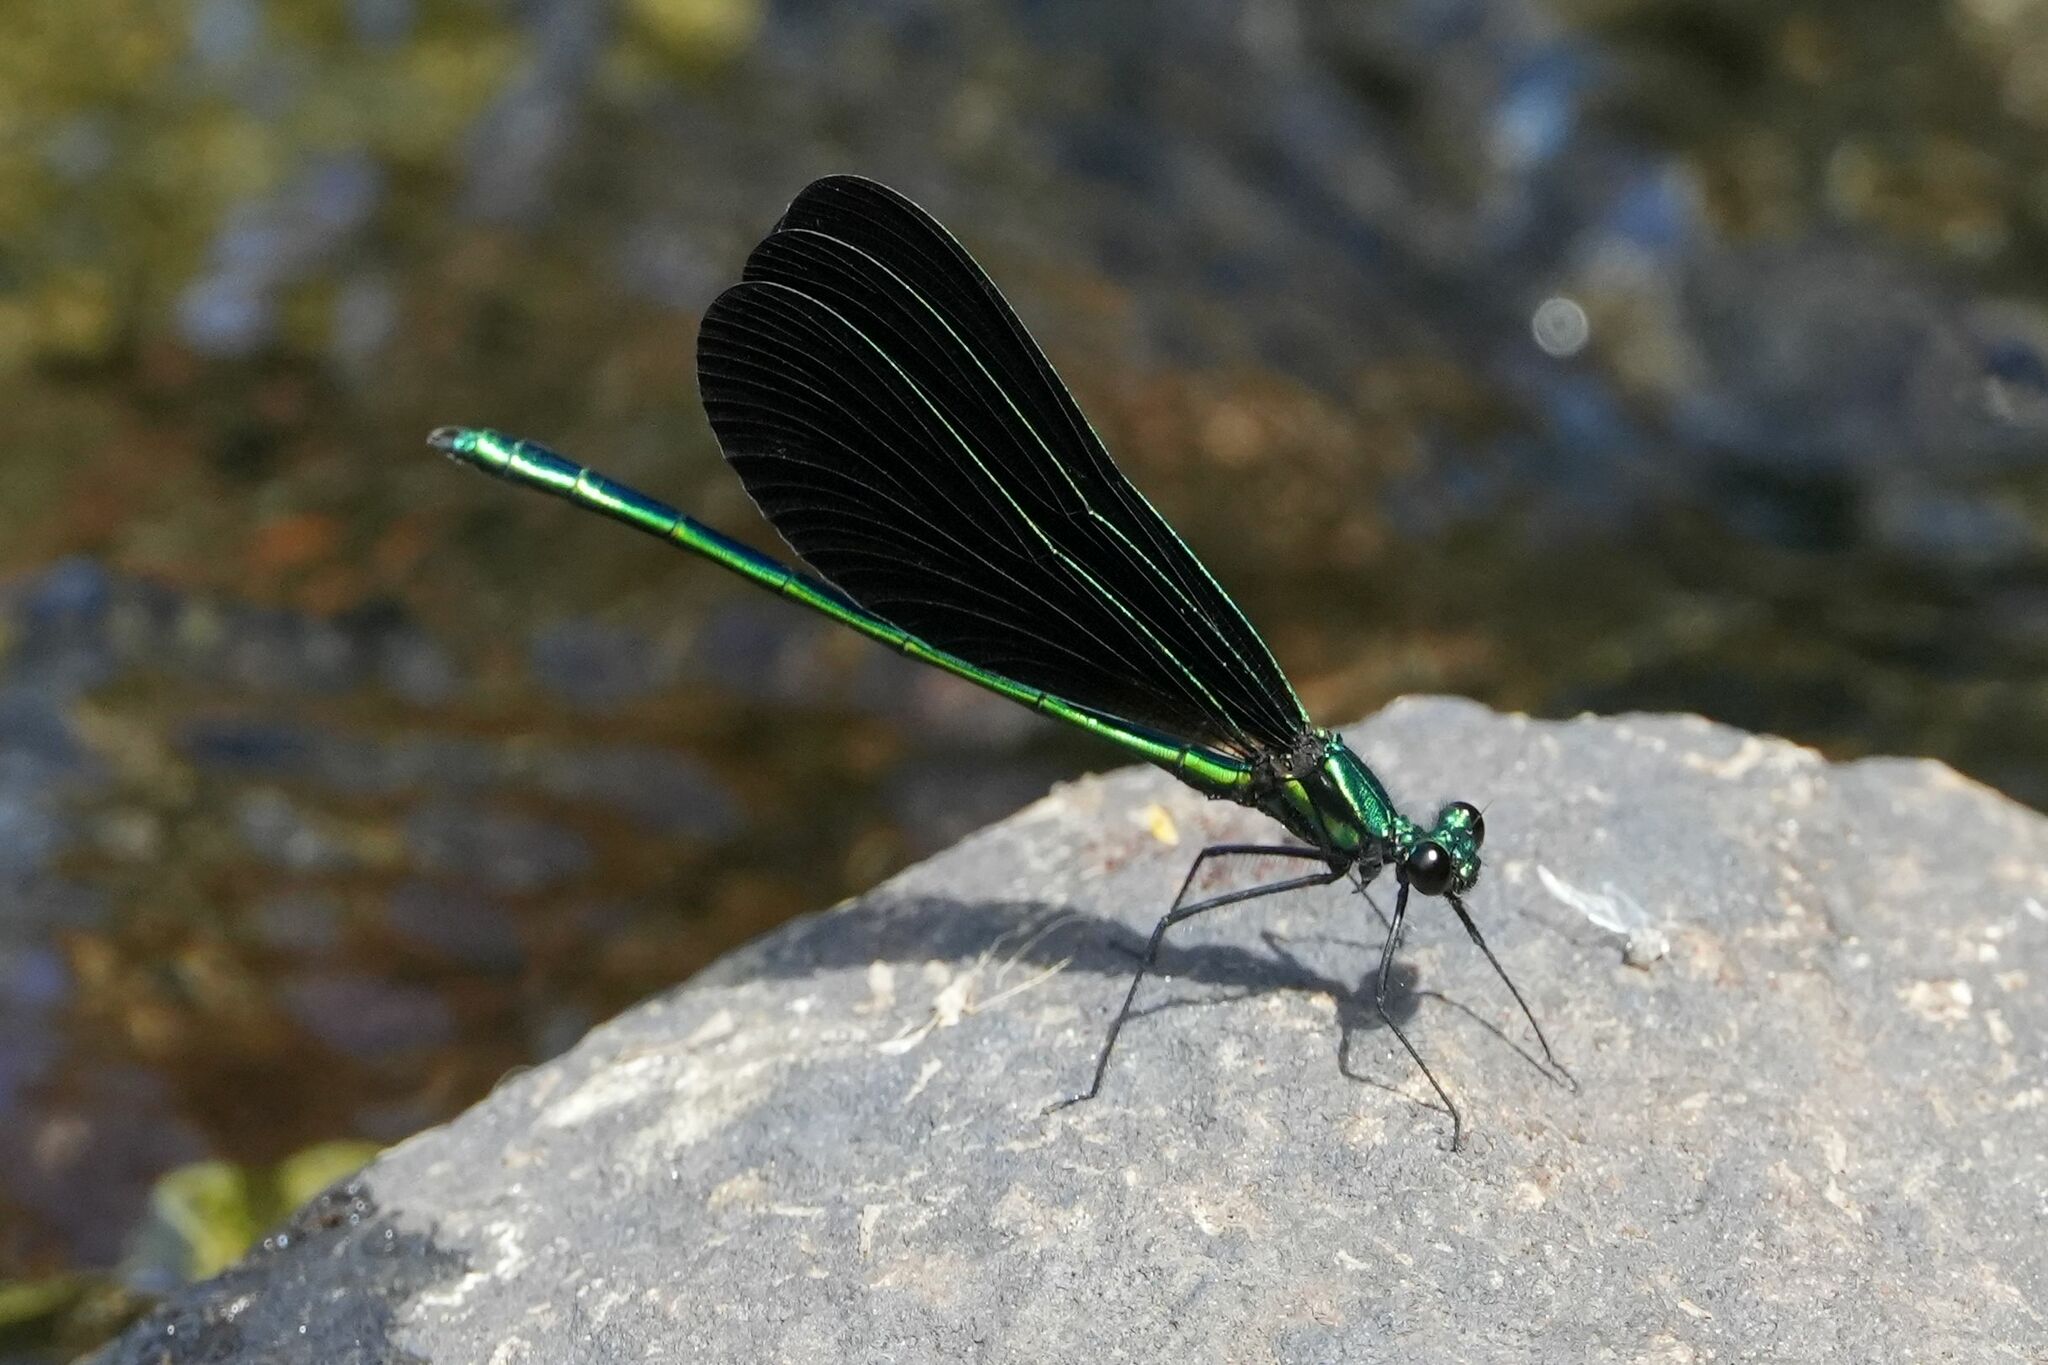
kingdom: Animalia
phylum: Arthropoda
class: Insecta
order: Odonata
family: Calopterygidae
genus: Calopteryx
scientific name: Calopteryx maculata
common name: Ebony jewelwing
